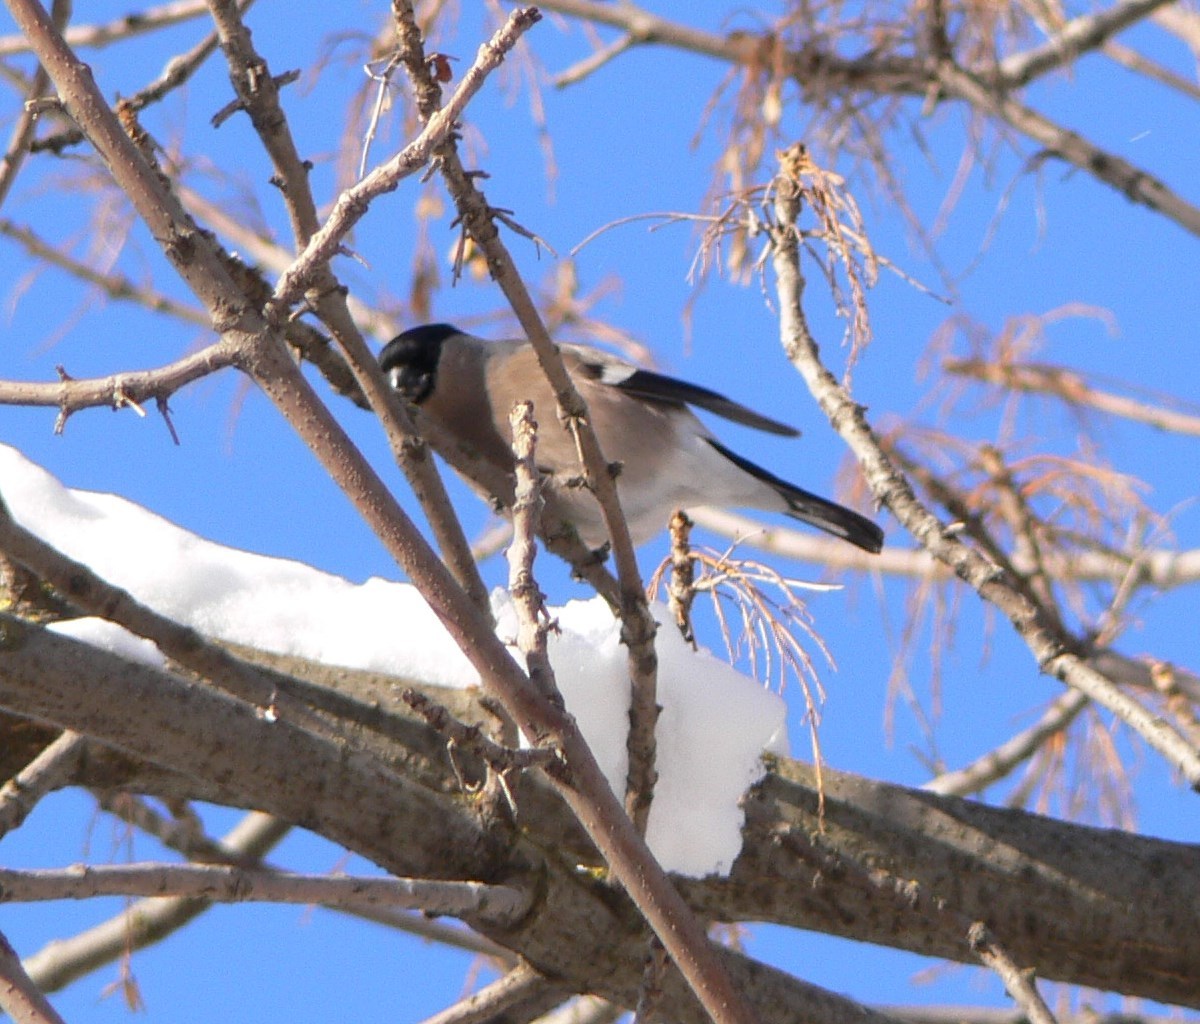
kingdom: Animalia
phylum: Chordata
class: Aves
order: Passeriformes
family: Fringillidae
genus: Pyrrhula
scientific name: Pyrrhula pyrrhula
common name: Eurasian bullfinch
